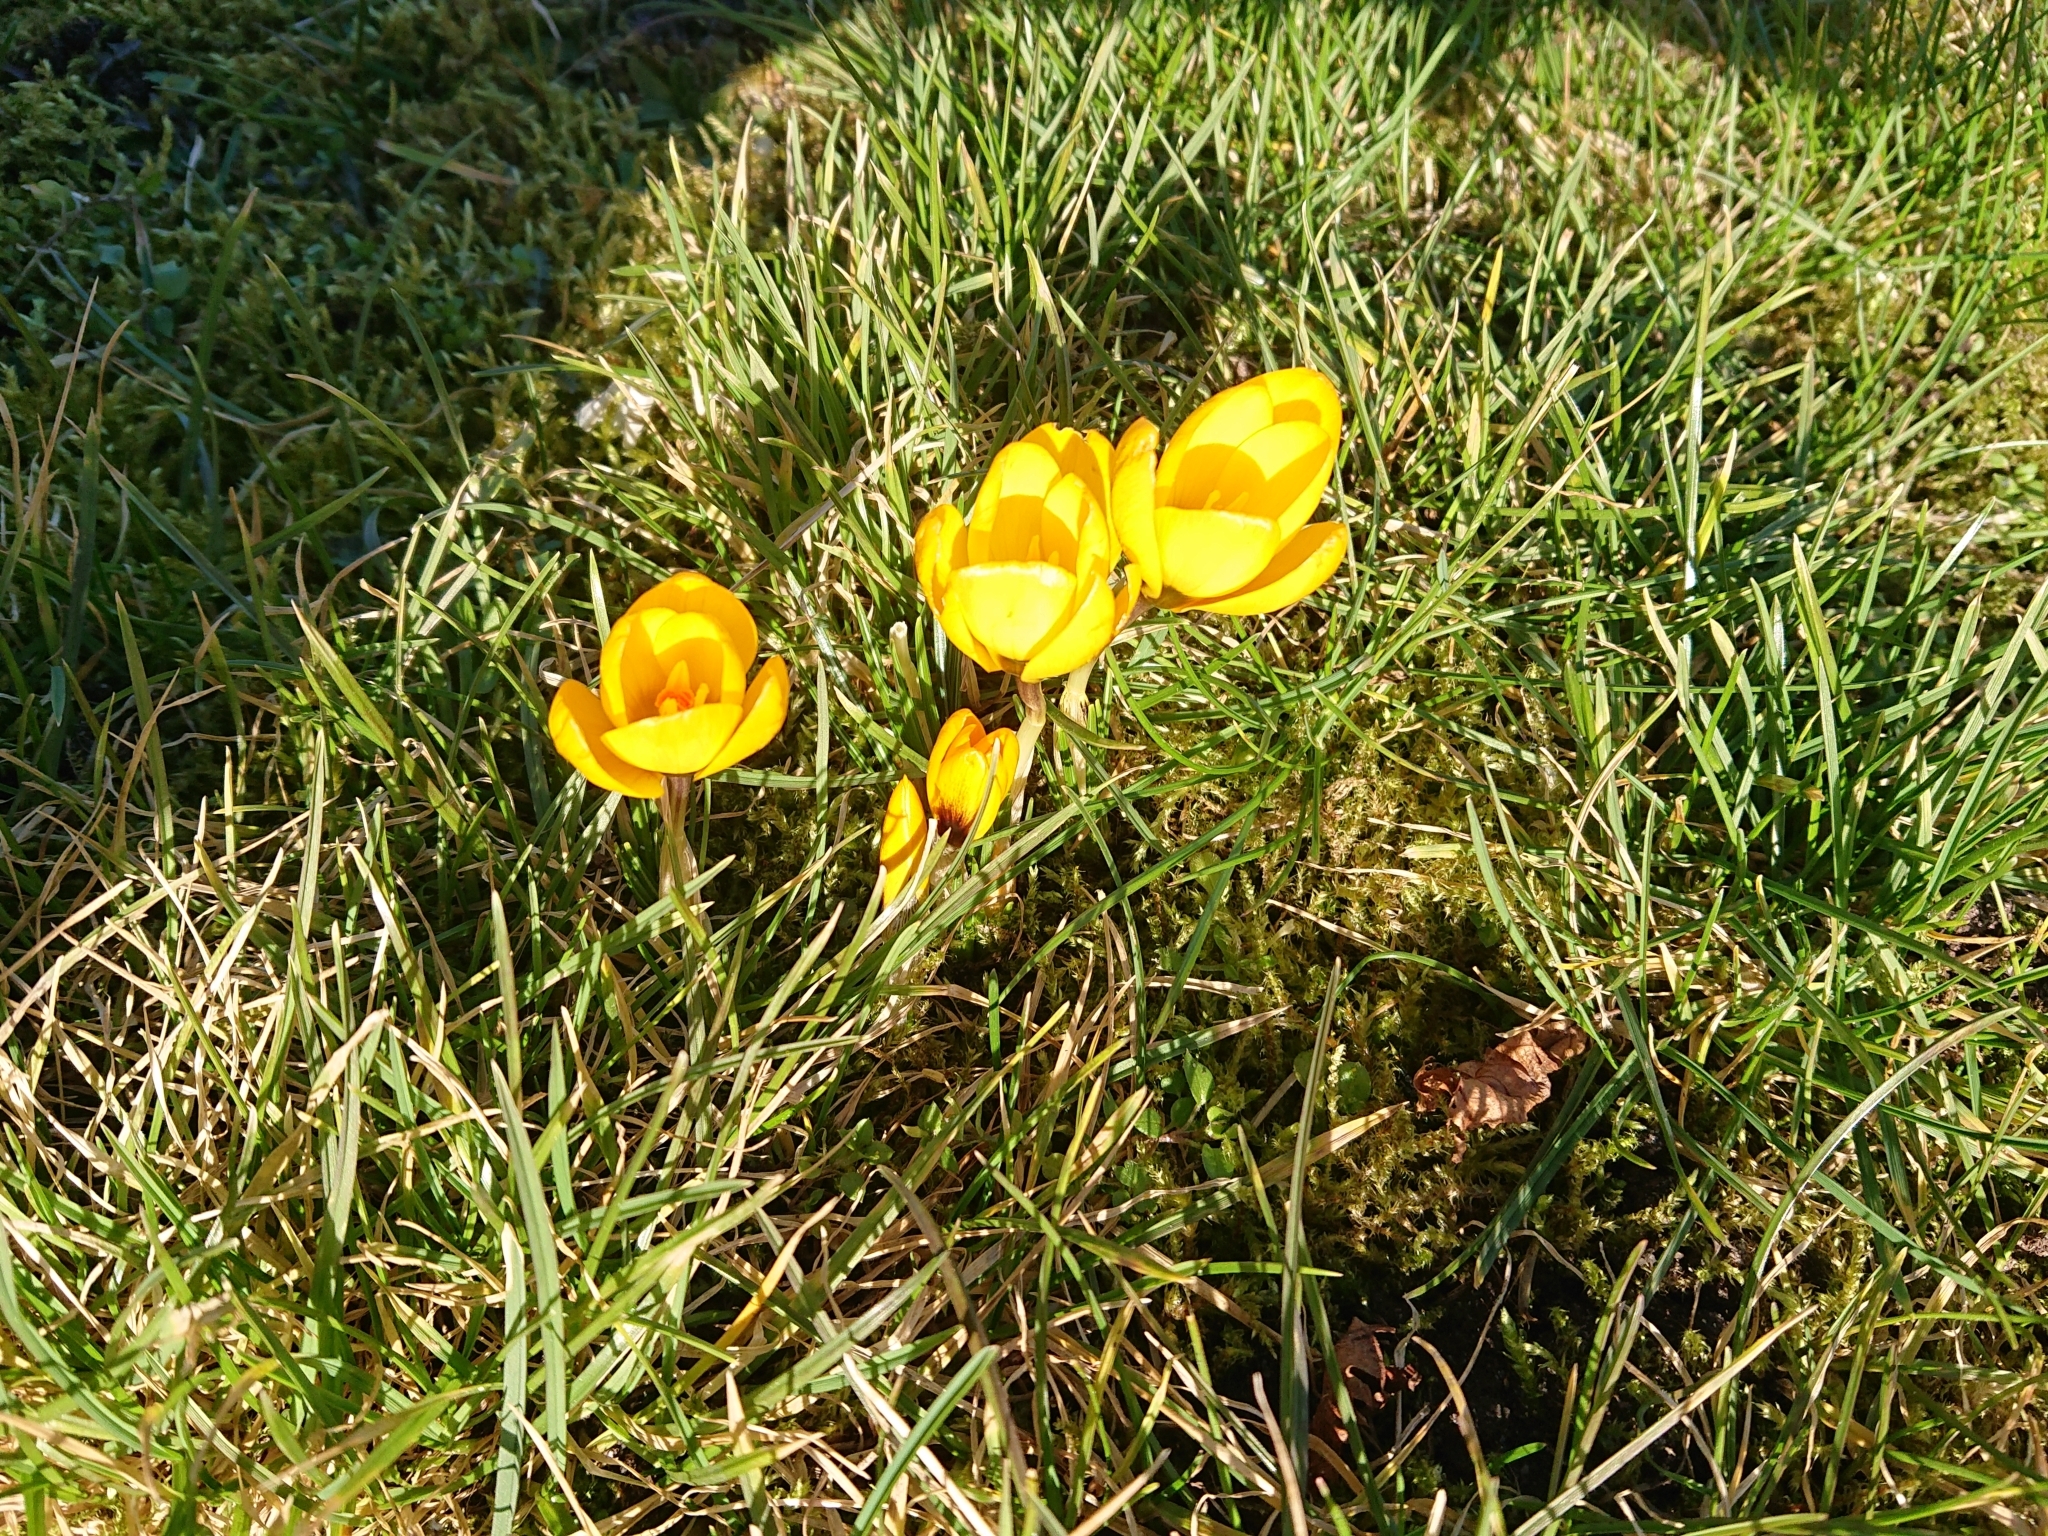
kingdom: Plantae
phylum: Tracheophyta
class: Liliopsida
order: Asparagales
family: Iridaceae
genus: Crocus
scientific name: Crocus chrysanthus
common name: Golden crocus
